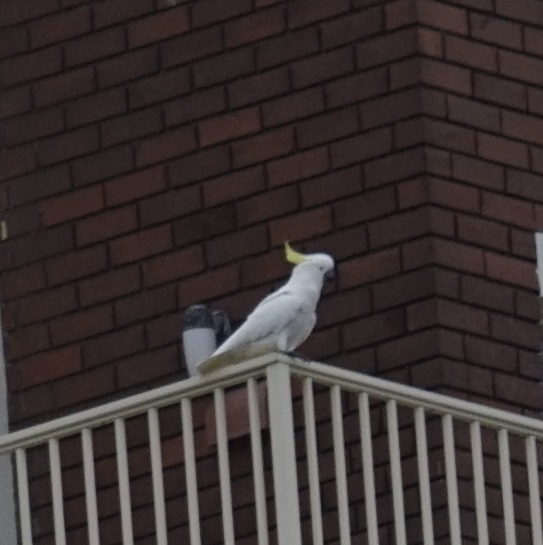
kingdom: Animalia
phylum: Chordata
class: Aves
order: Psittaciformes
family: Psittacidae
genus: Cacatua
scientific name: Cacatua galerita
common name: Sulphur-crested cockatoo
